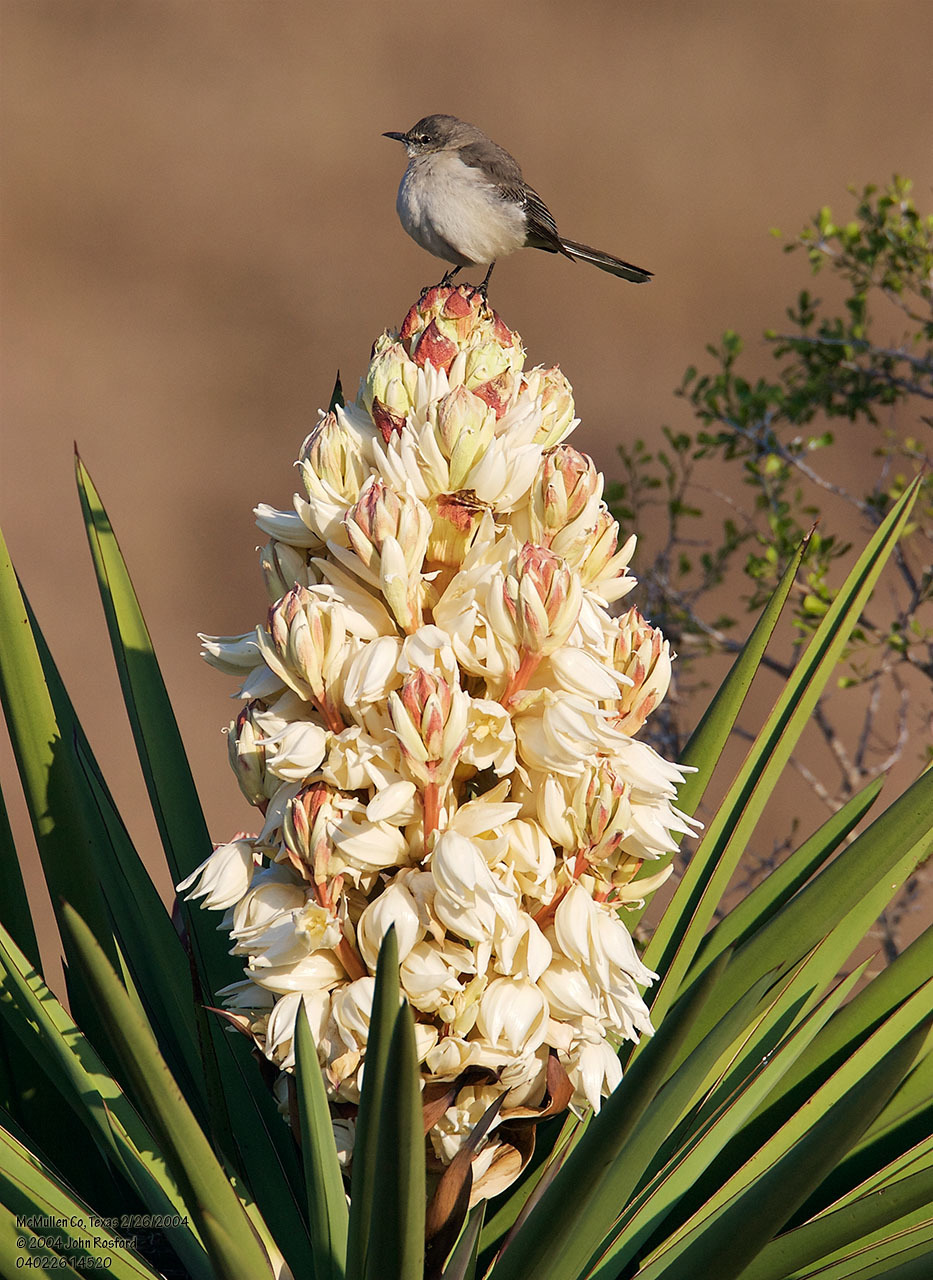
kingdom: Plantae
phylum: Tracheophyta
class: Liliopsida
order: Asparagales
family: Asparagaceae
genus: Yucca
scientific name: Yucca treculiana
